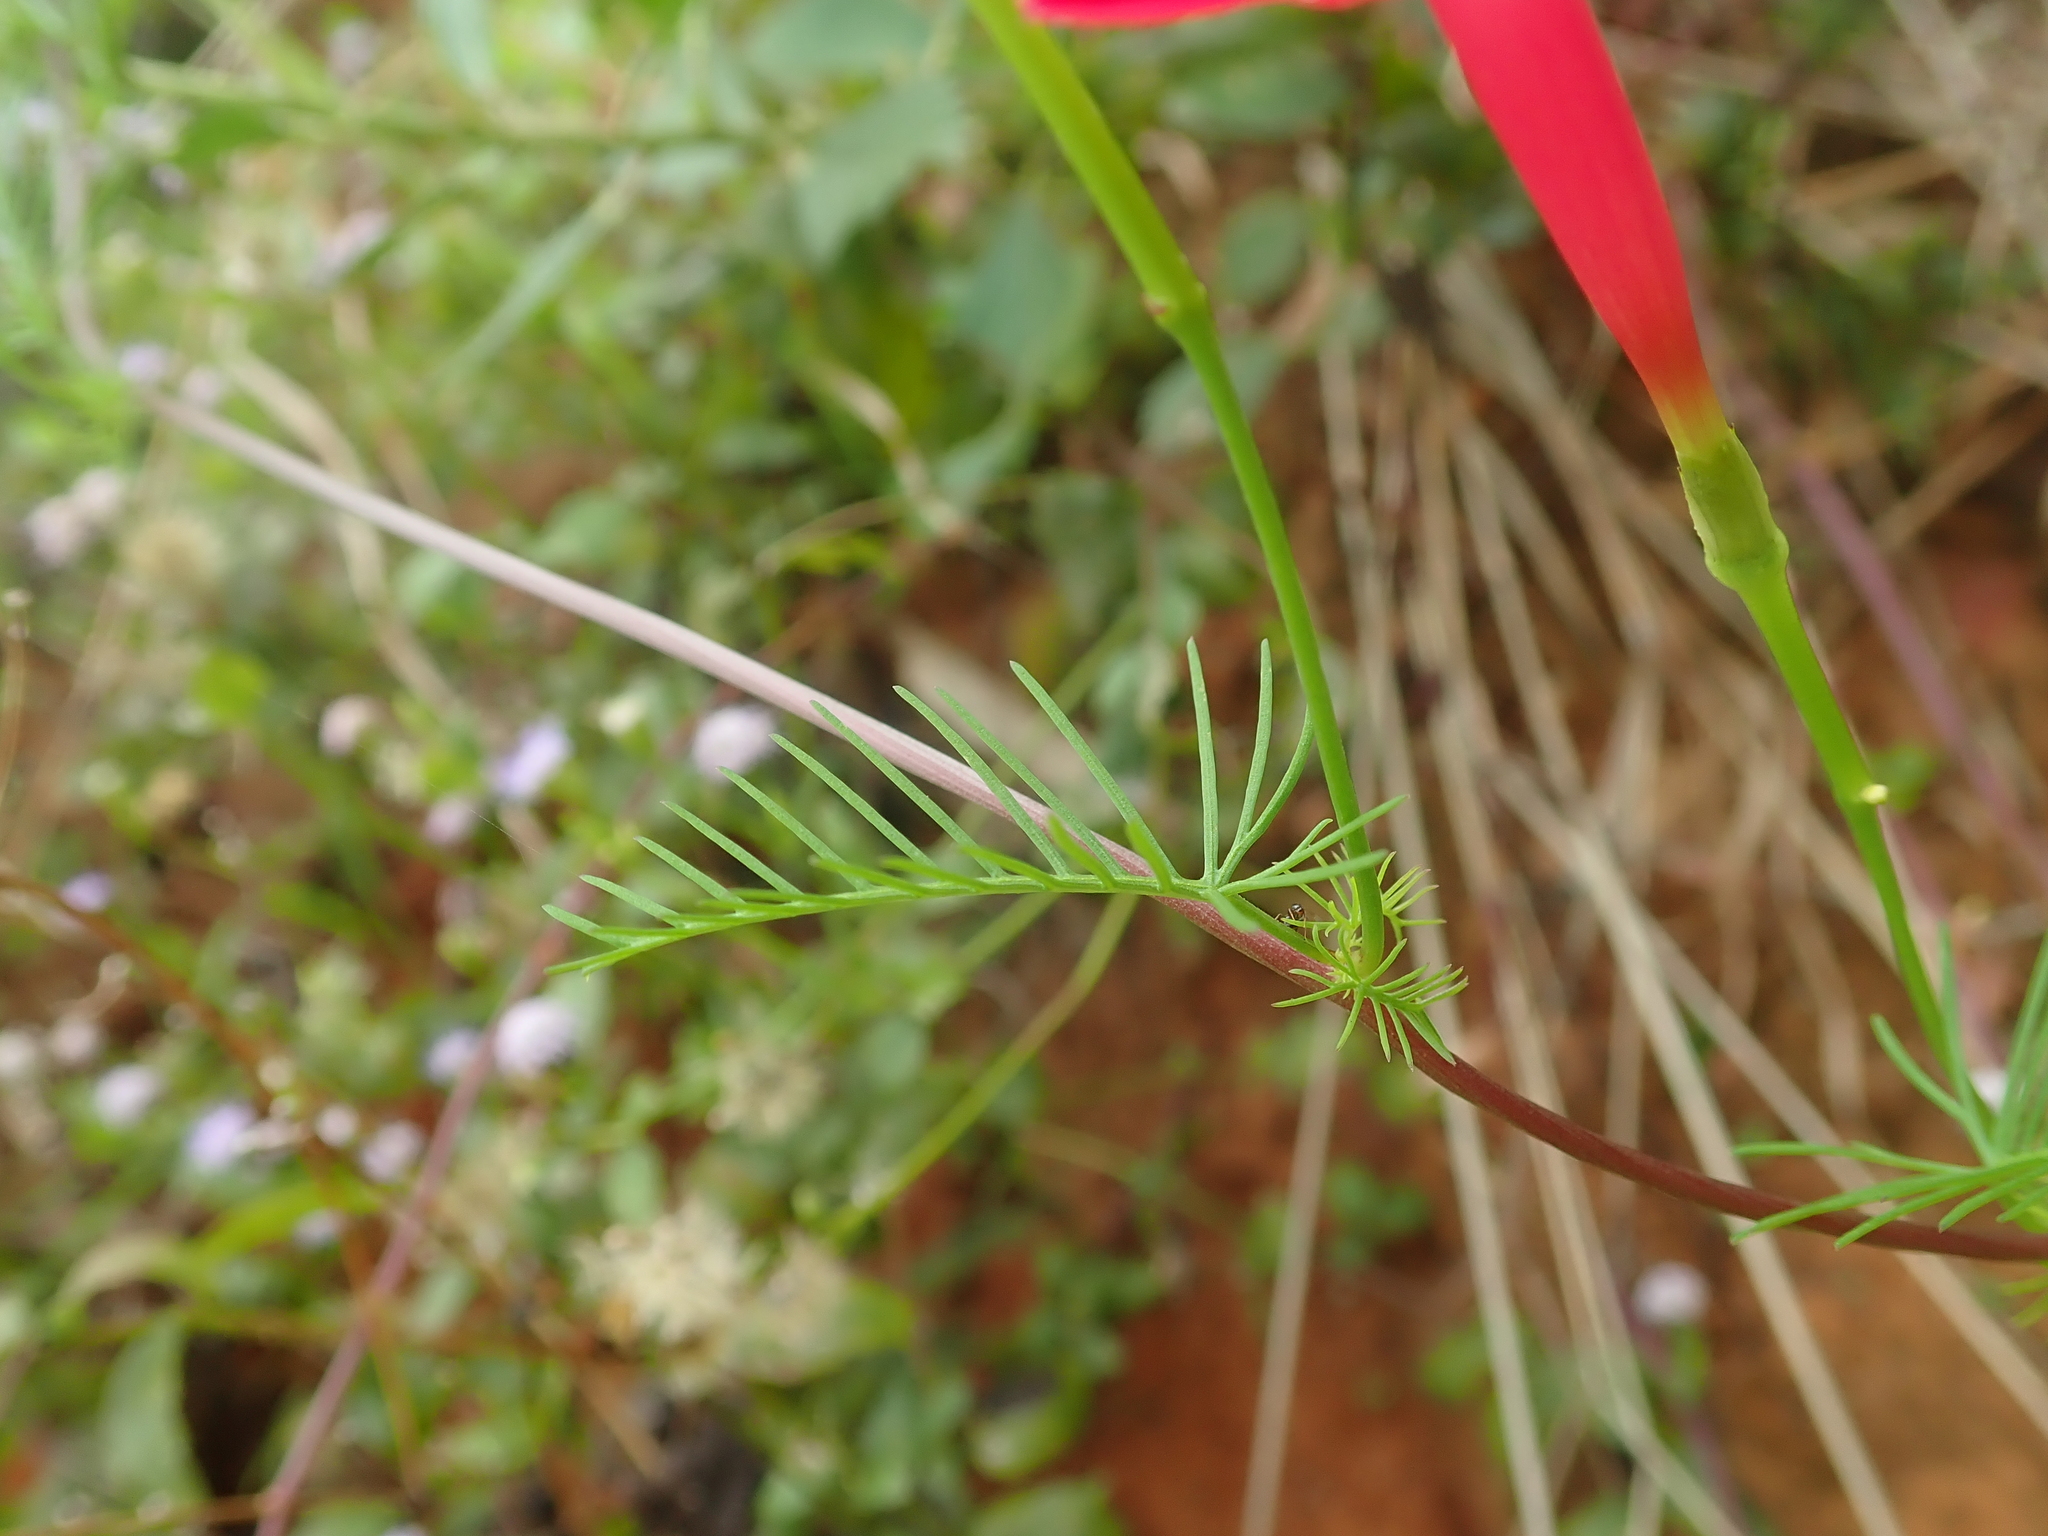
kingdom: Plantae
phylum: Tracheophyta
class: Magnoliopsida
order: Solanales
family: Convolvulaceae
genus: Ipomoea
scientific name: Ipomoea quamoclit
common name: Cypress vine
